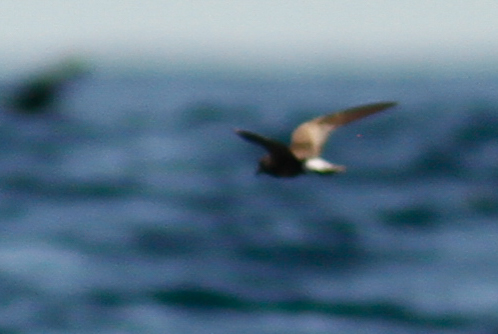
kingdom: Animalia
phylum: Chordata
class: Aves
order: Procellariiformes
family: Hydrobatidae
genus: Oceanodroma
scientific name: Oceanodroma castro
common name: Band-rumped storm-petrel
